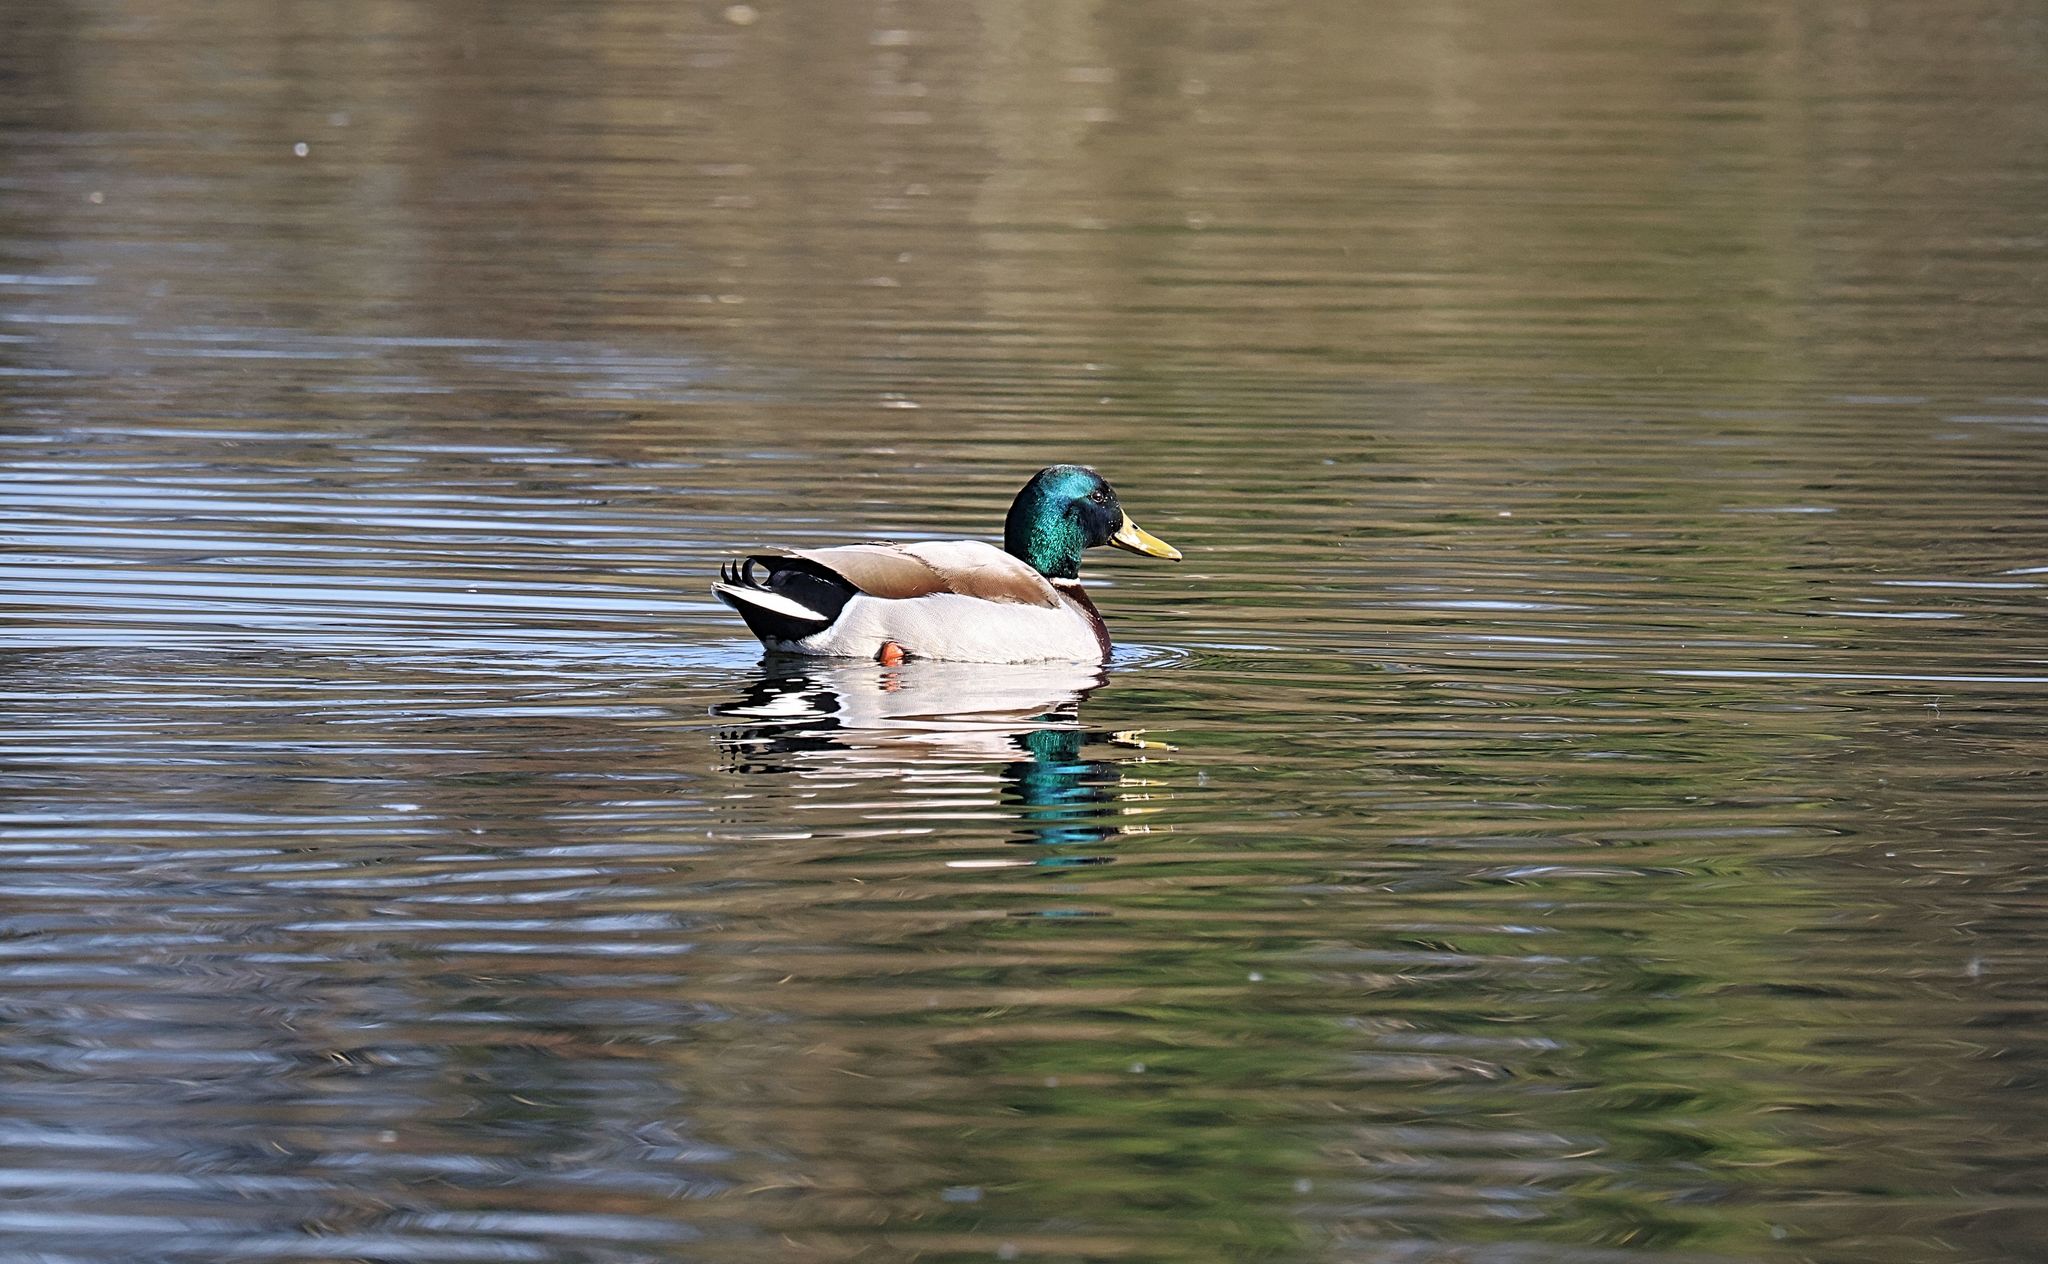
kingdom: Animalia
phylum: Chordata
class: Aves
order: Anseriformes
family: Anatidae
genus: Anas
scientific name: Anas platyrhynchos
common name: Mallard
